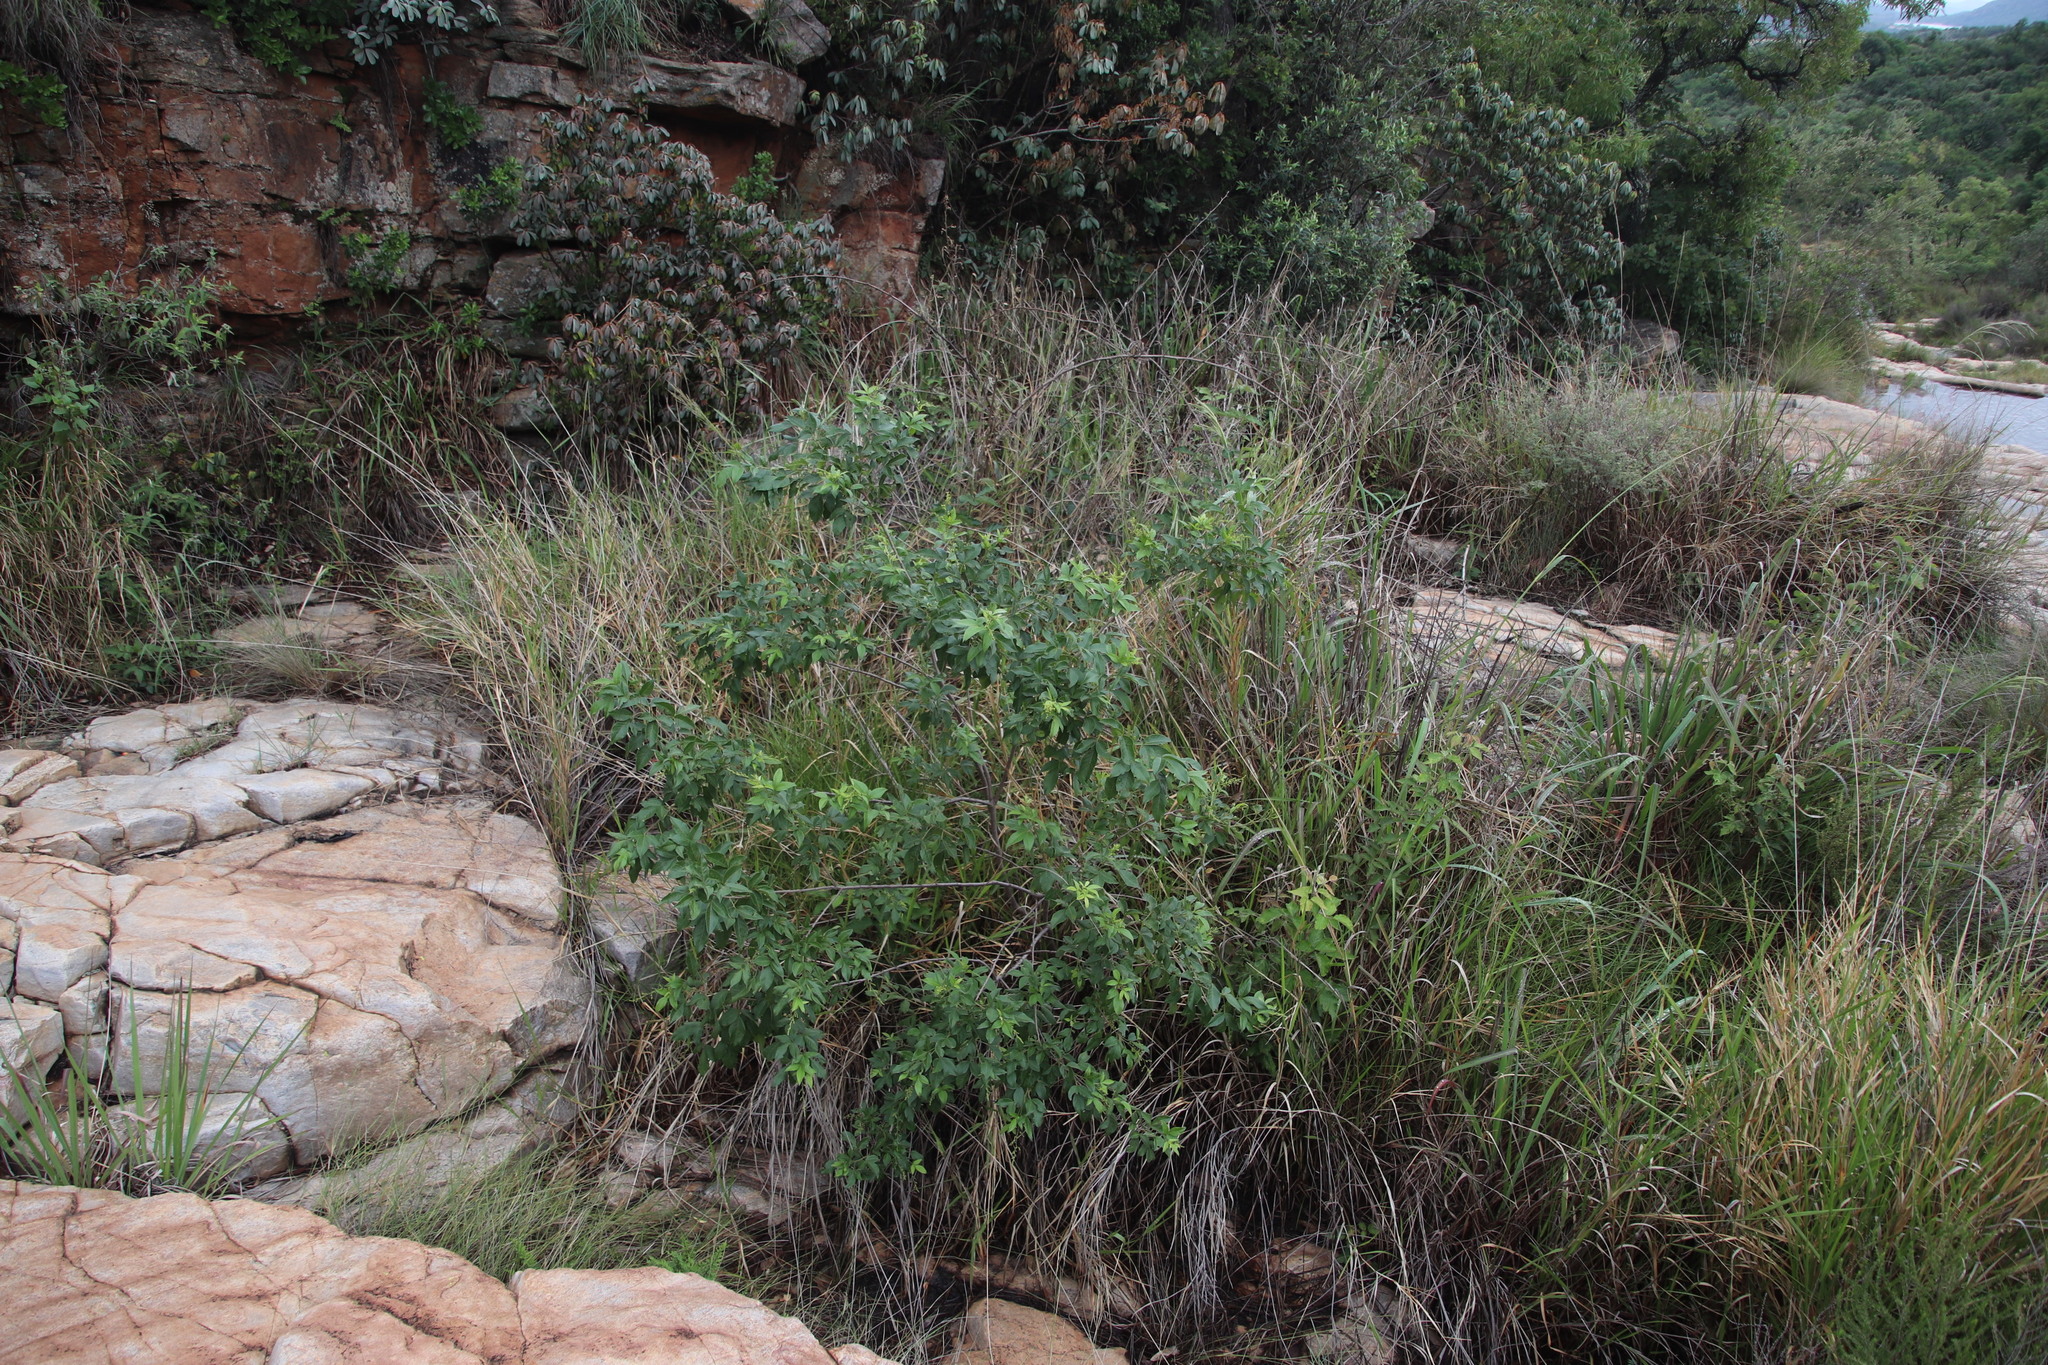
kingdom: Plantae
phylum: Tracheophyta
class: Magnoliopsida
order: Sapindales
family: Anacardiaceae
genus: Searsia
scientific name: Searsia pyroides
